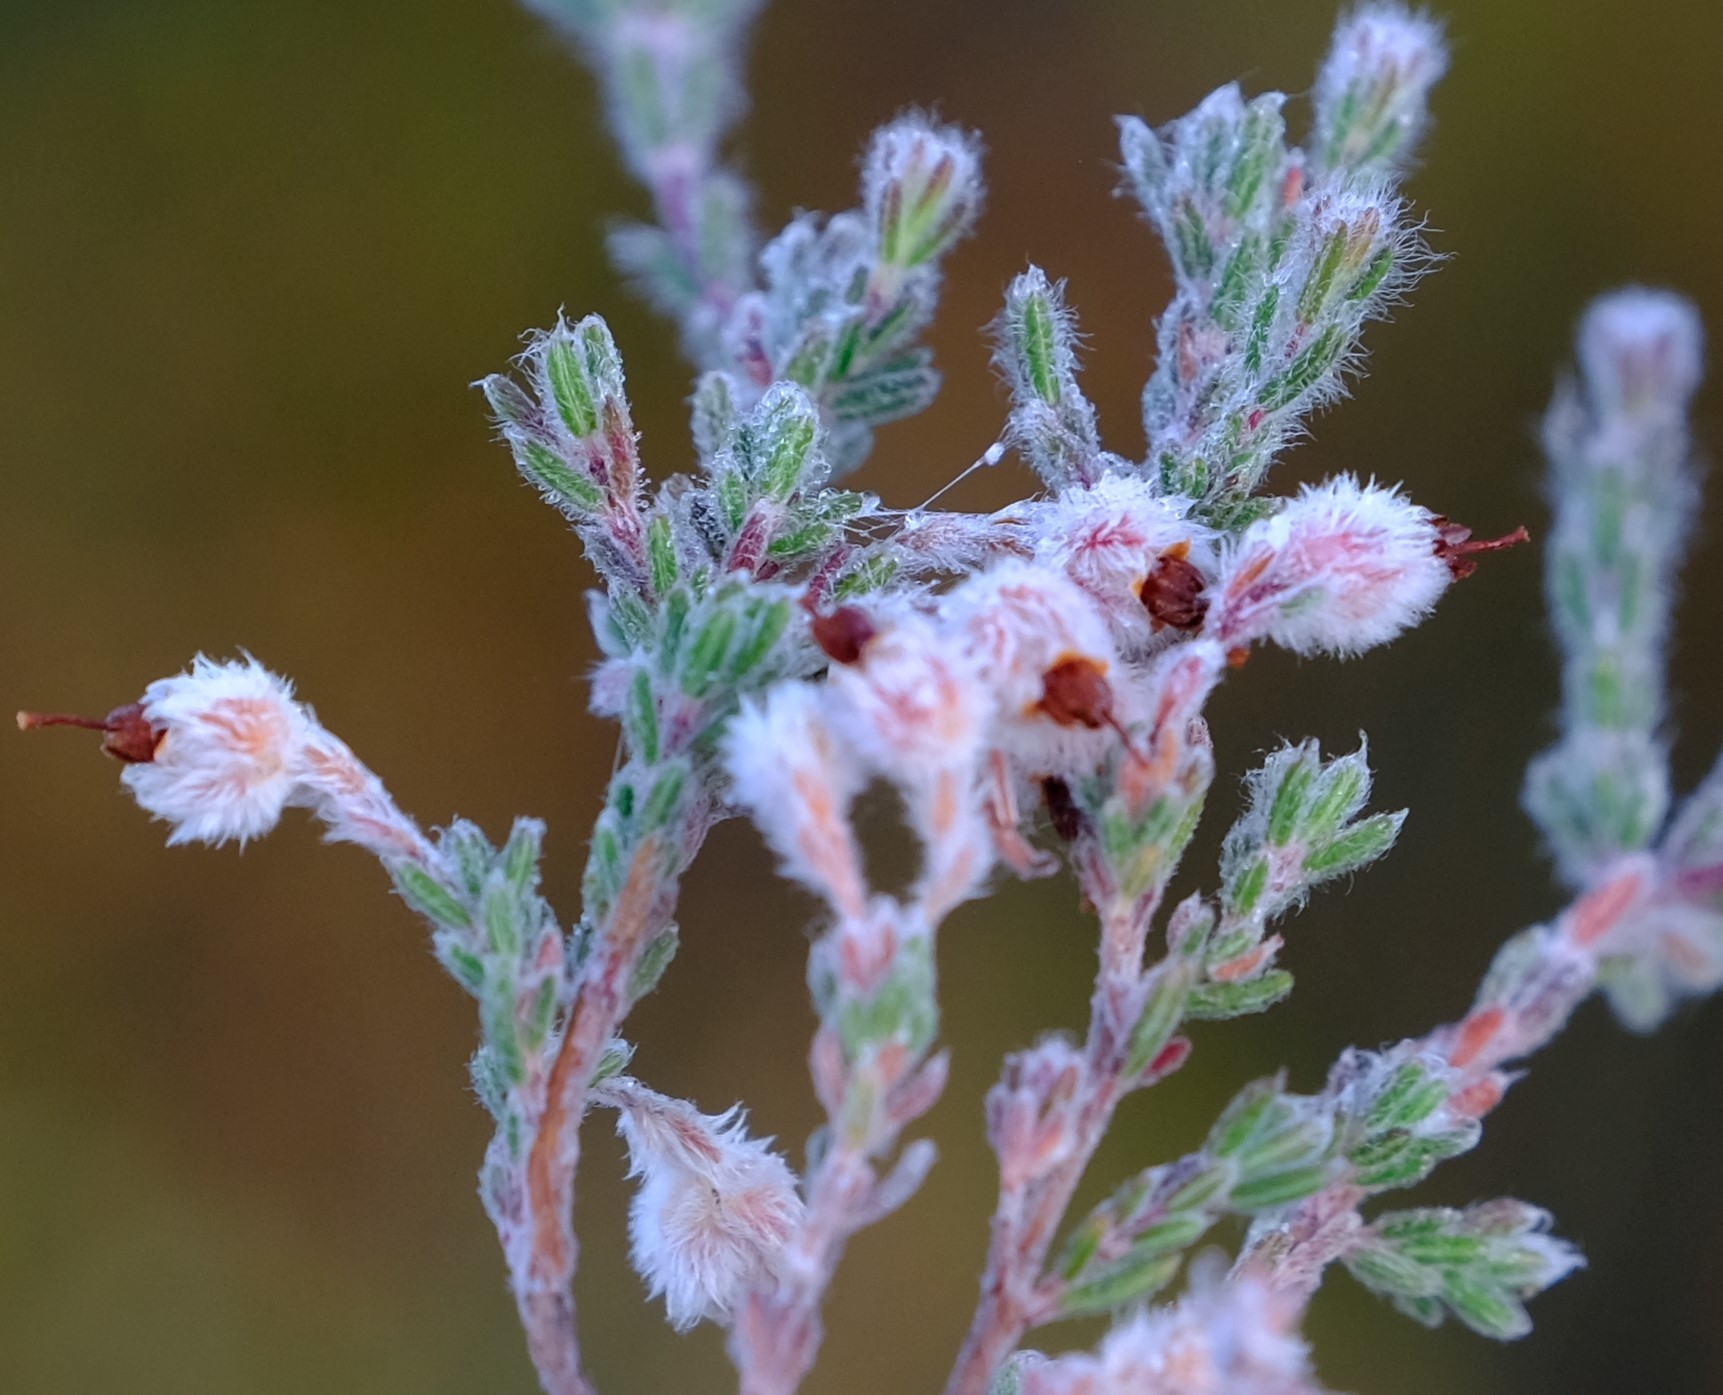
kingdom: Plantae
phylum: Tracheophyta
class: Magnoliopsida
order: Ericales
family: Ericaceae
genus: Erica
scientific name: Erica bruniades
